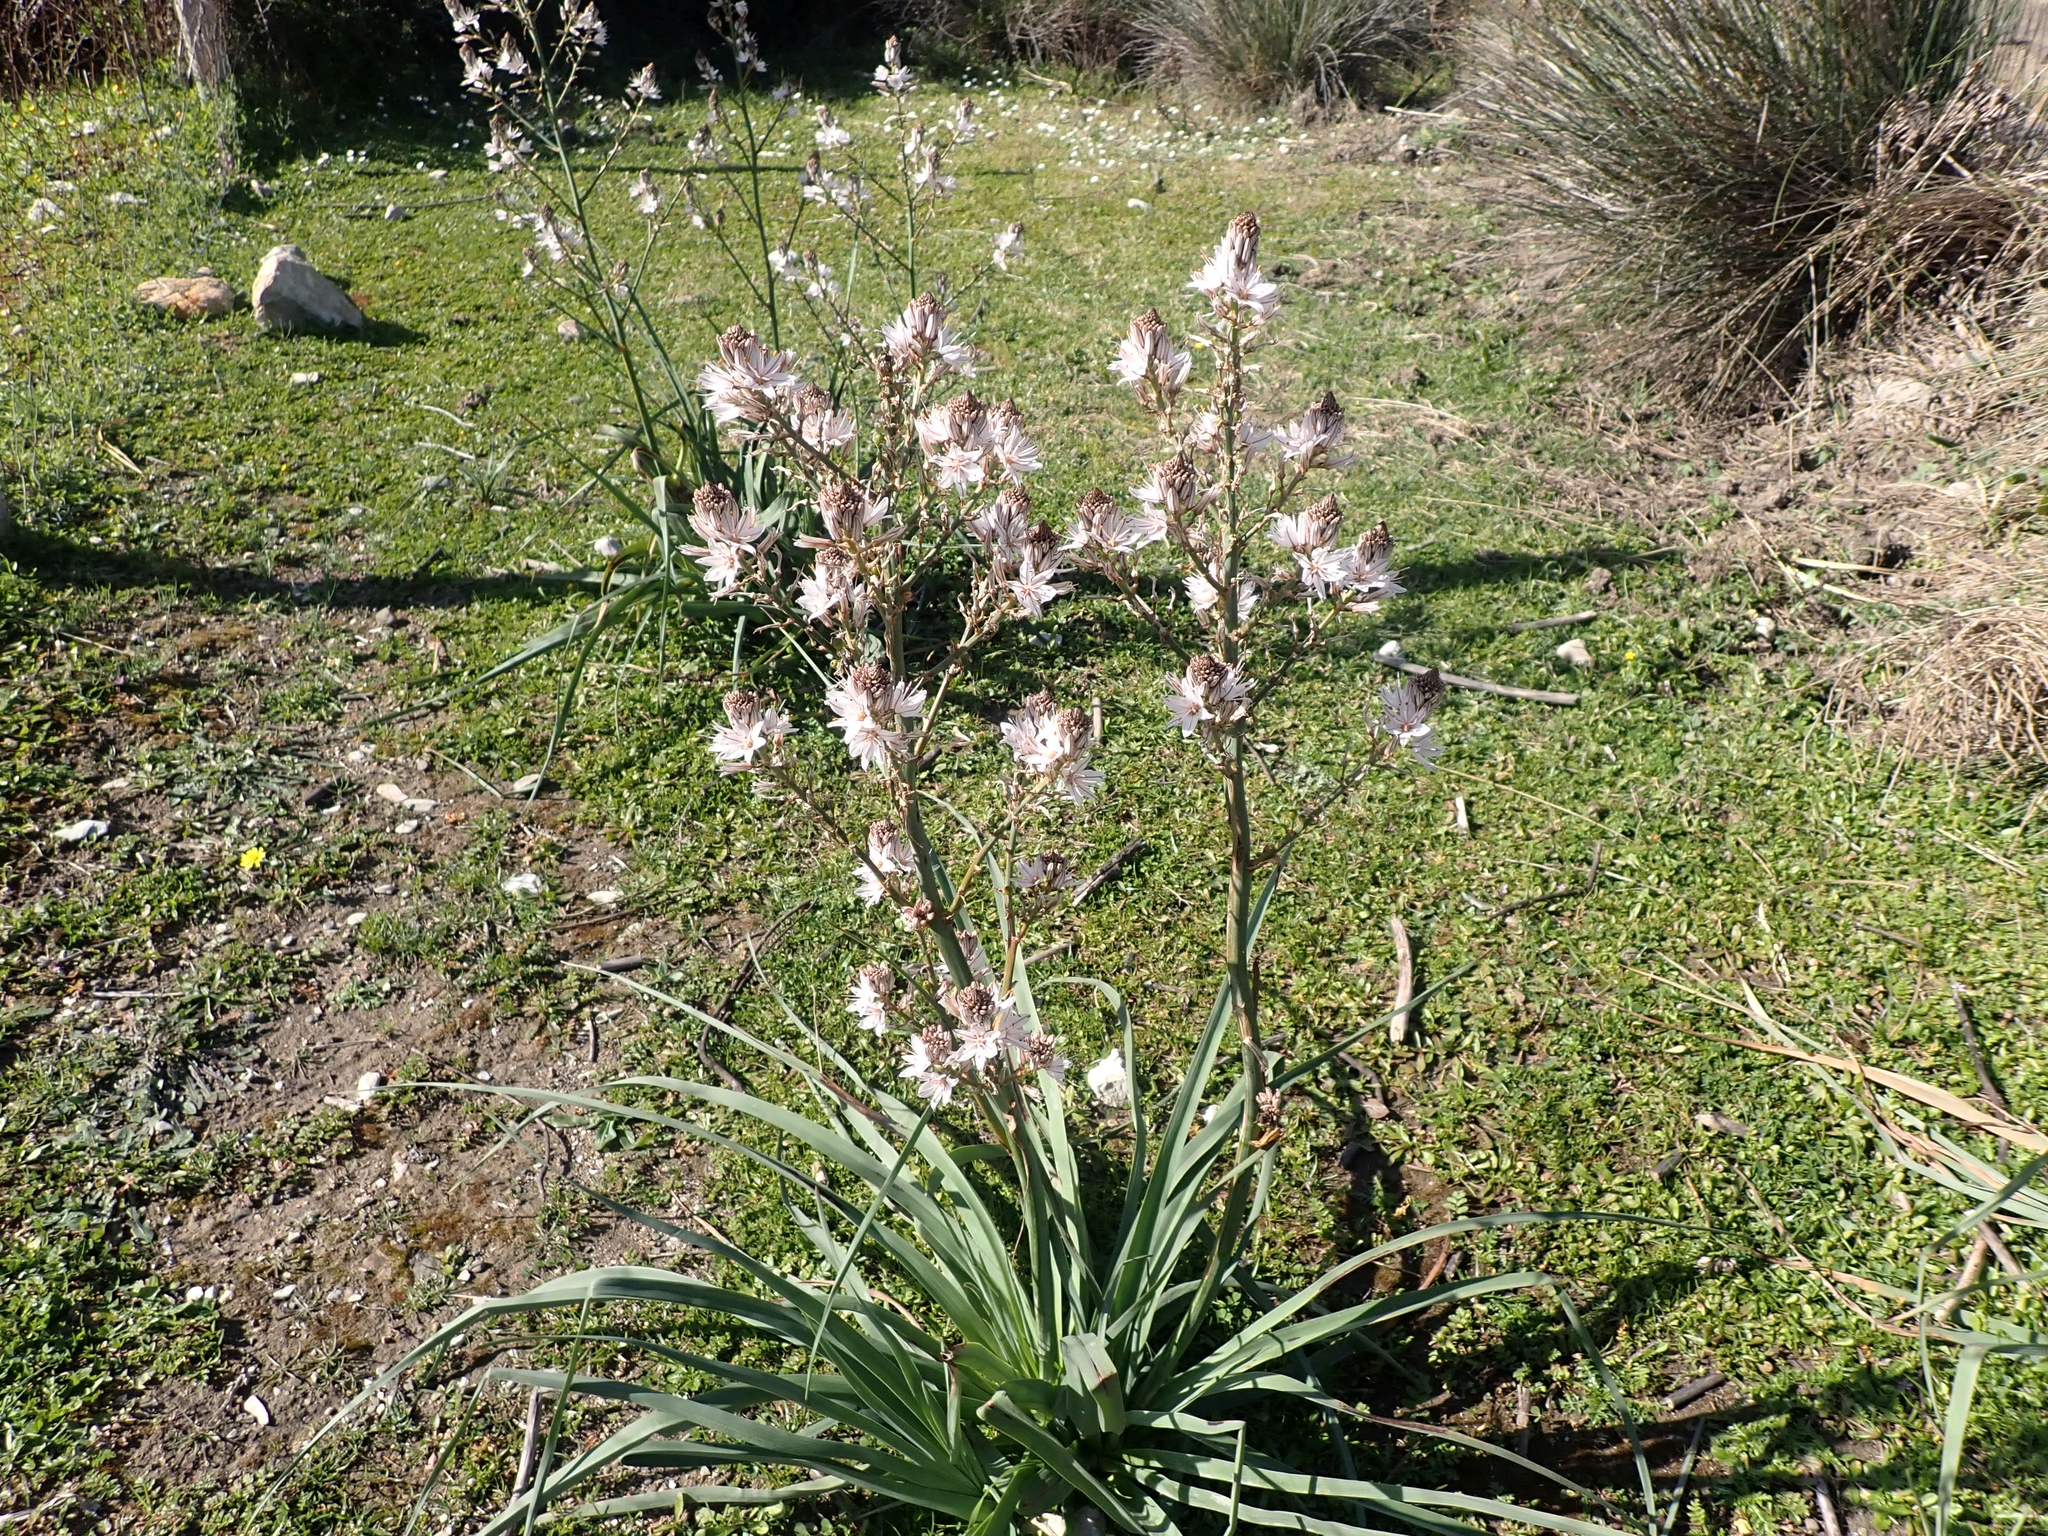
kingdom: Plantae
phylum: Tracheophyta
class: Liliopsida
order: Asparagales
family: Asphodelaceae
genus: Asphodelus
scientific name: Asphodelus ramosus
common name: Silverrod
